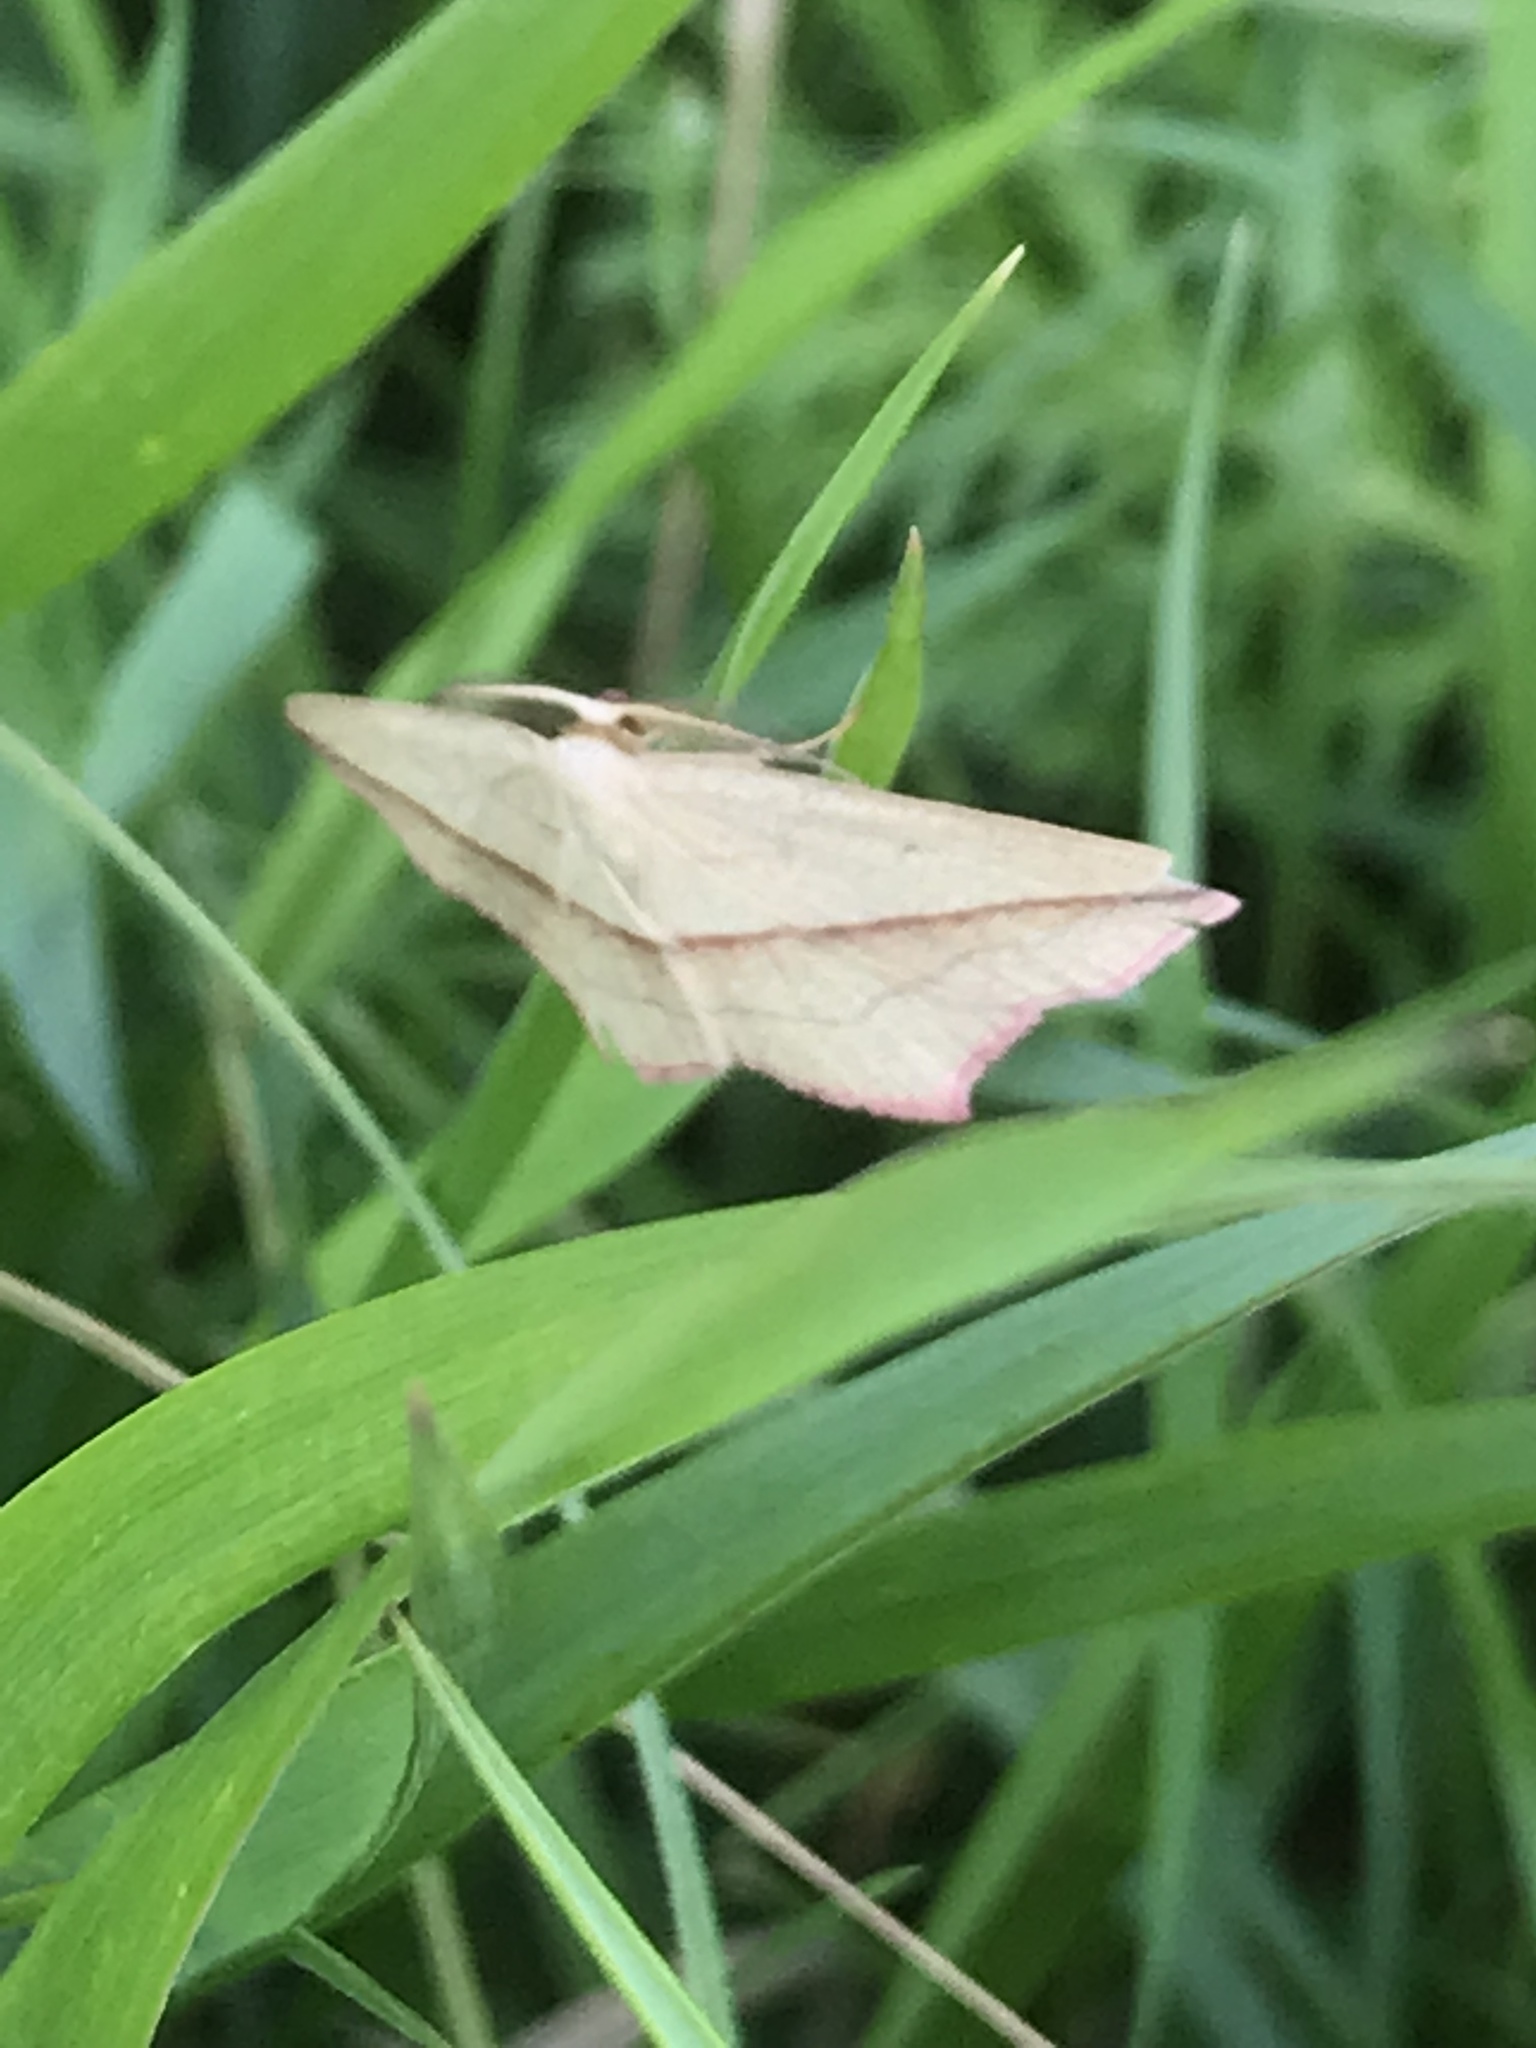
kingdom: Animalia
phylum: Arthropoda
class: Insecta
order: Lepidoptera
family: Geometridae
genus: Timandra
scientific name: Timandra comae
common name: Blood-vein
